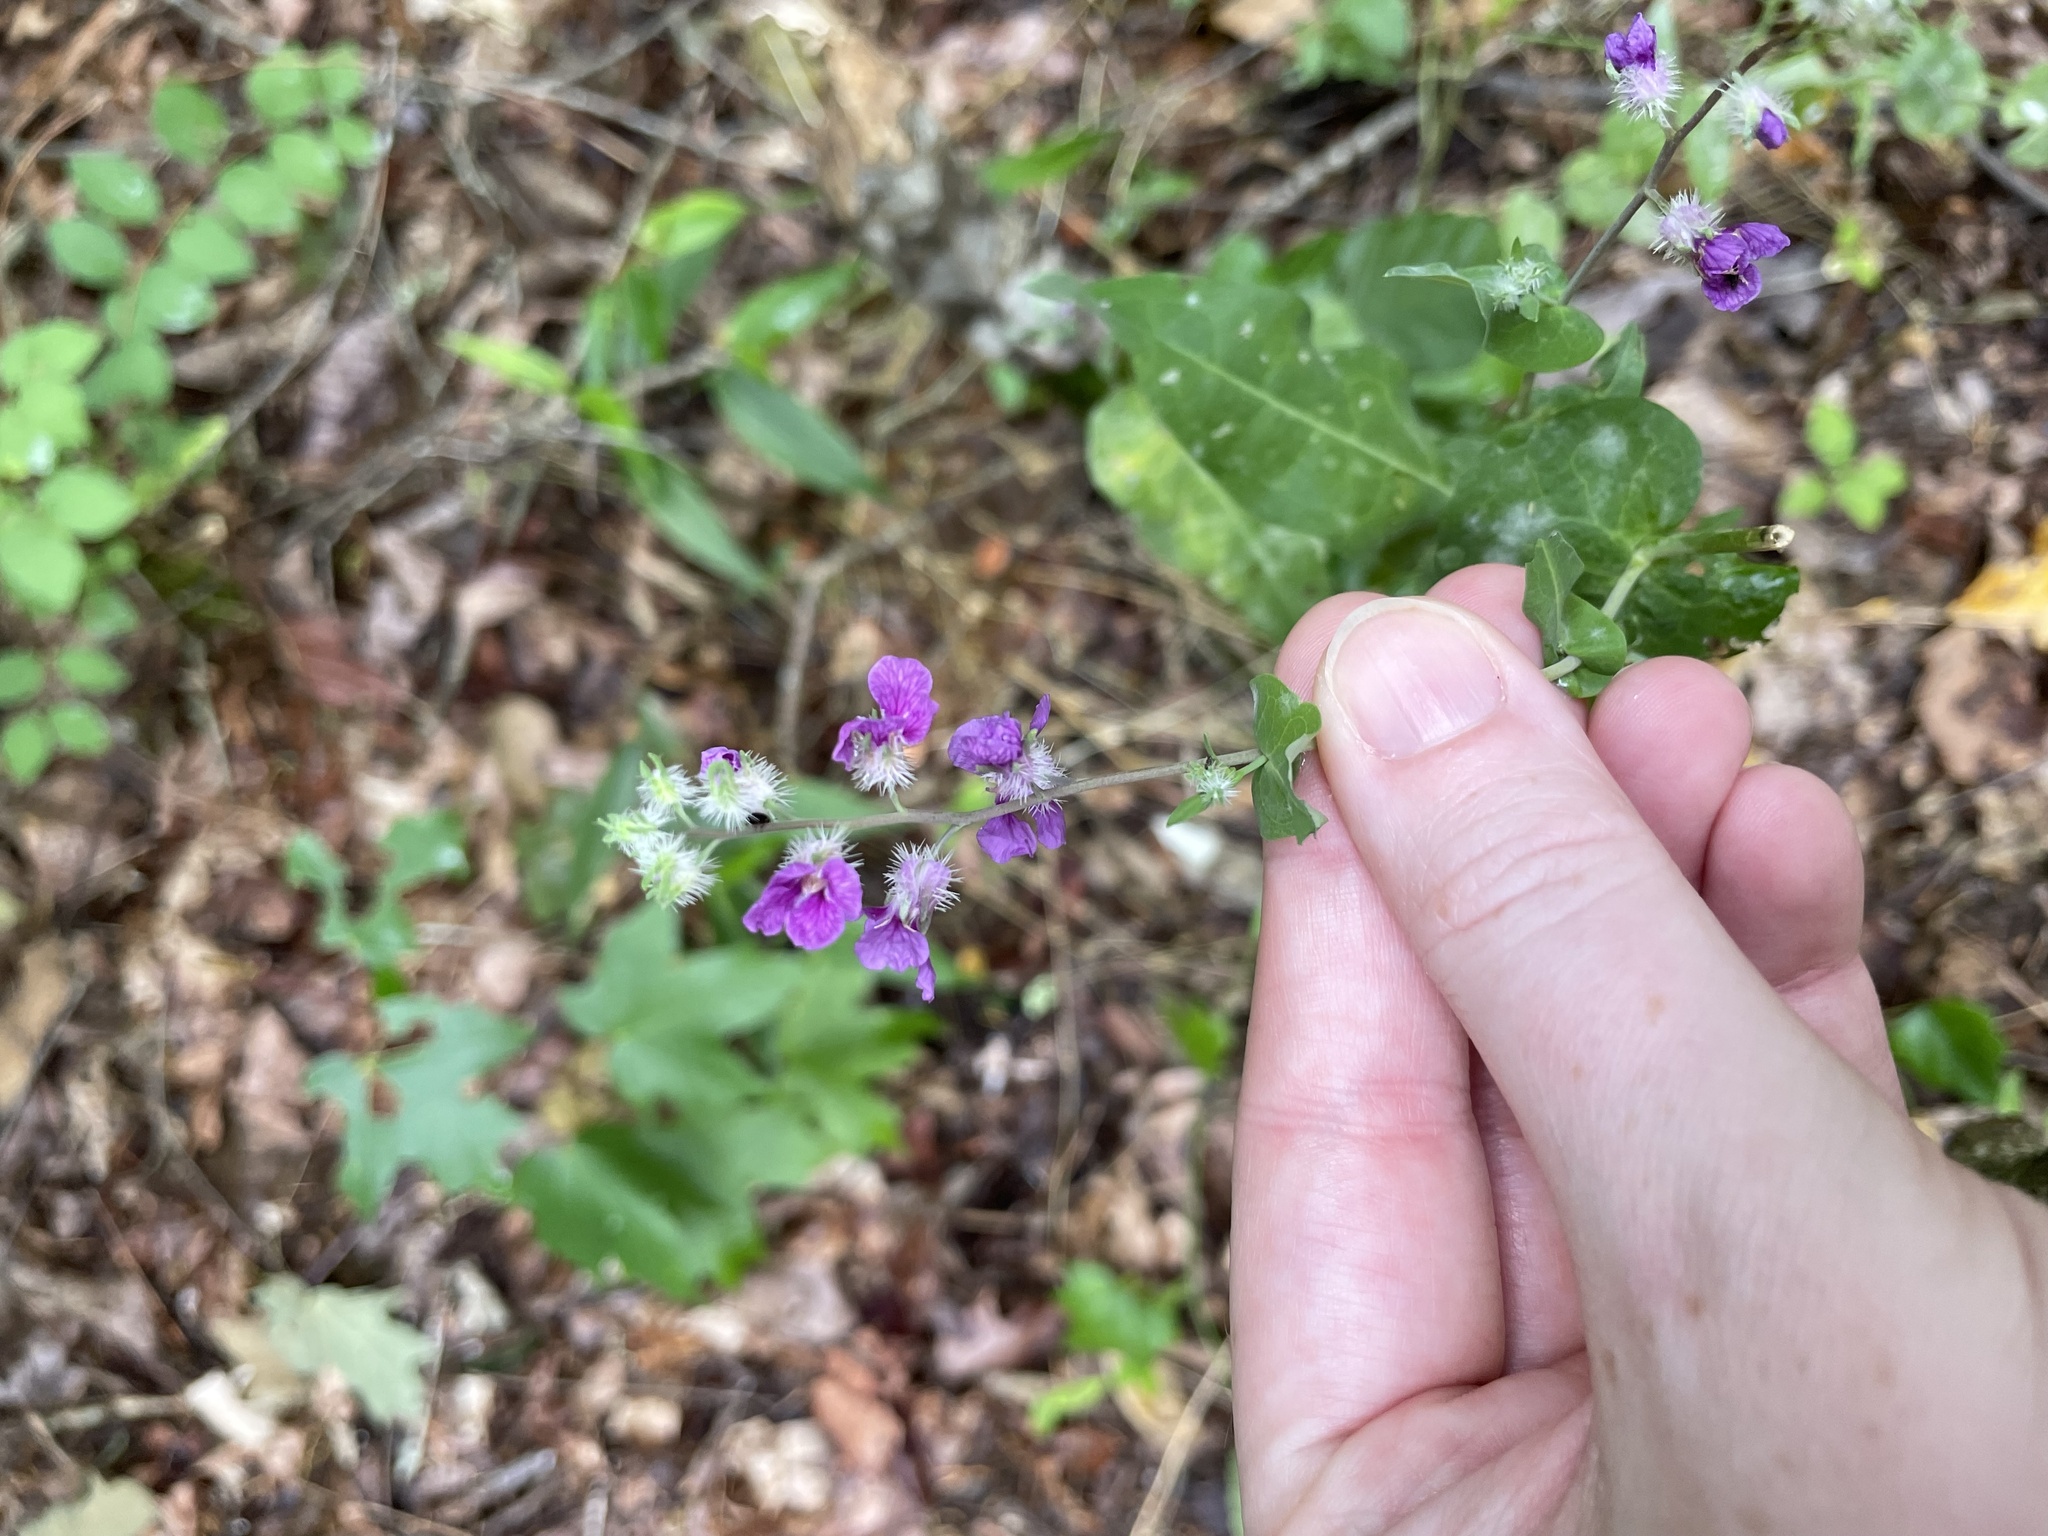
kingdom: Plantae
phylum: Tracheophyta
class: Magnoliopsida
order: Brassicales
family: Brassicaceae
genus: Streptanthus
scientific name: Streptanthus squamiformis
